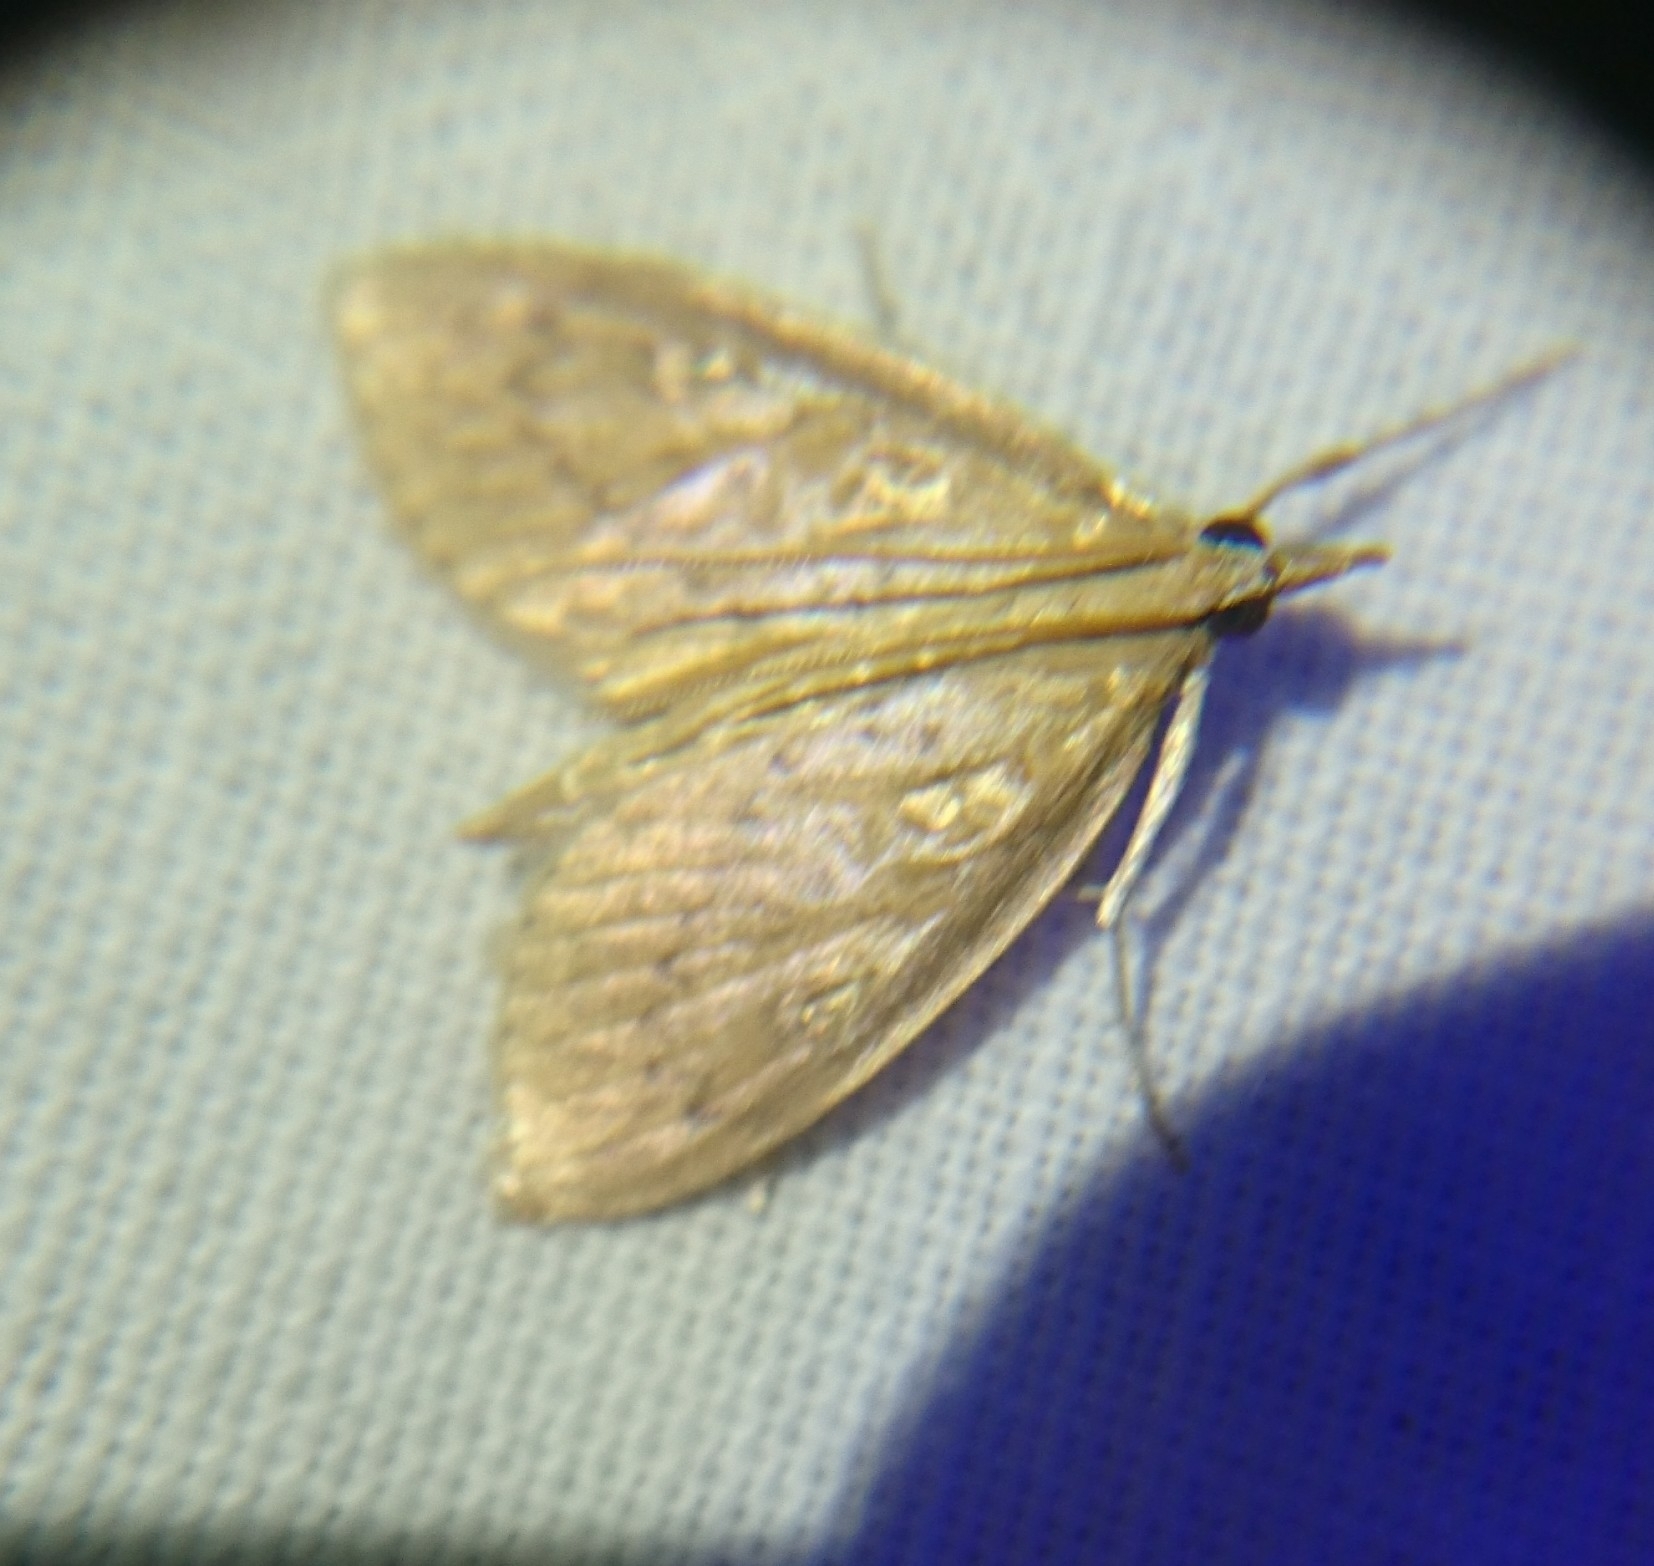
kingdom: Animalia
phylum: Arthropoda
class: Insecta
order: Lepidoptera
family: Crambidae
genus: Crocidophora
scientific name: Crocidophora pustuliferalis
